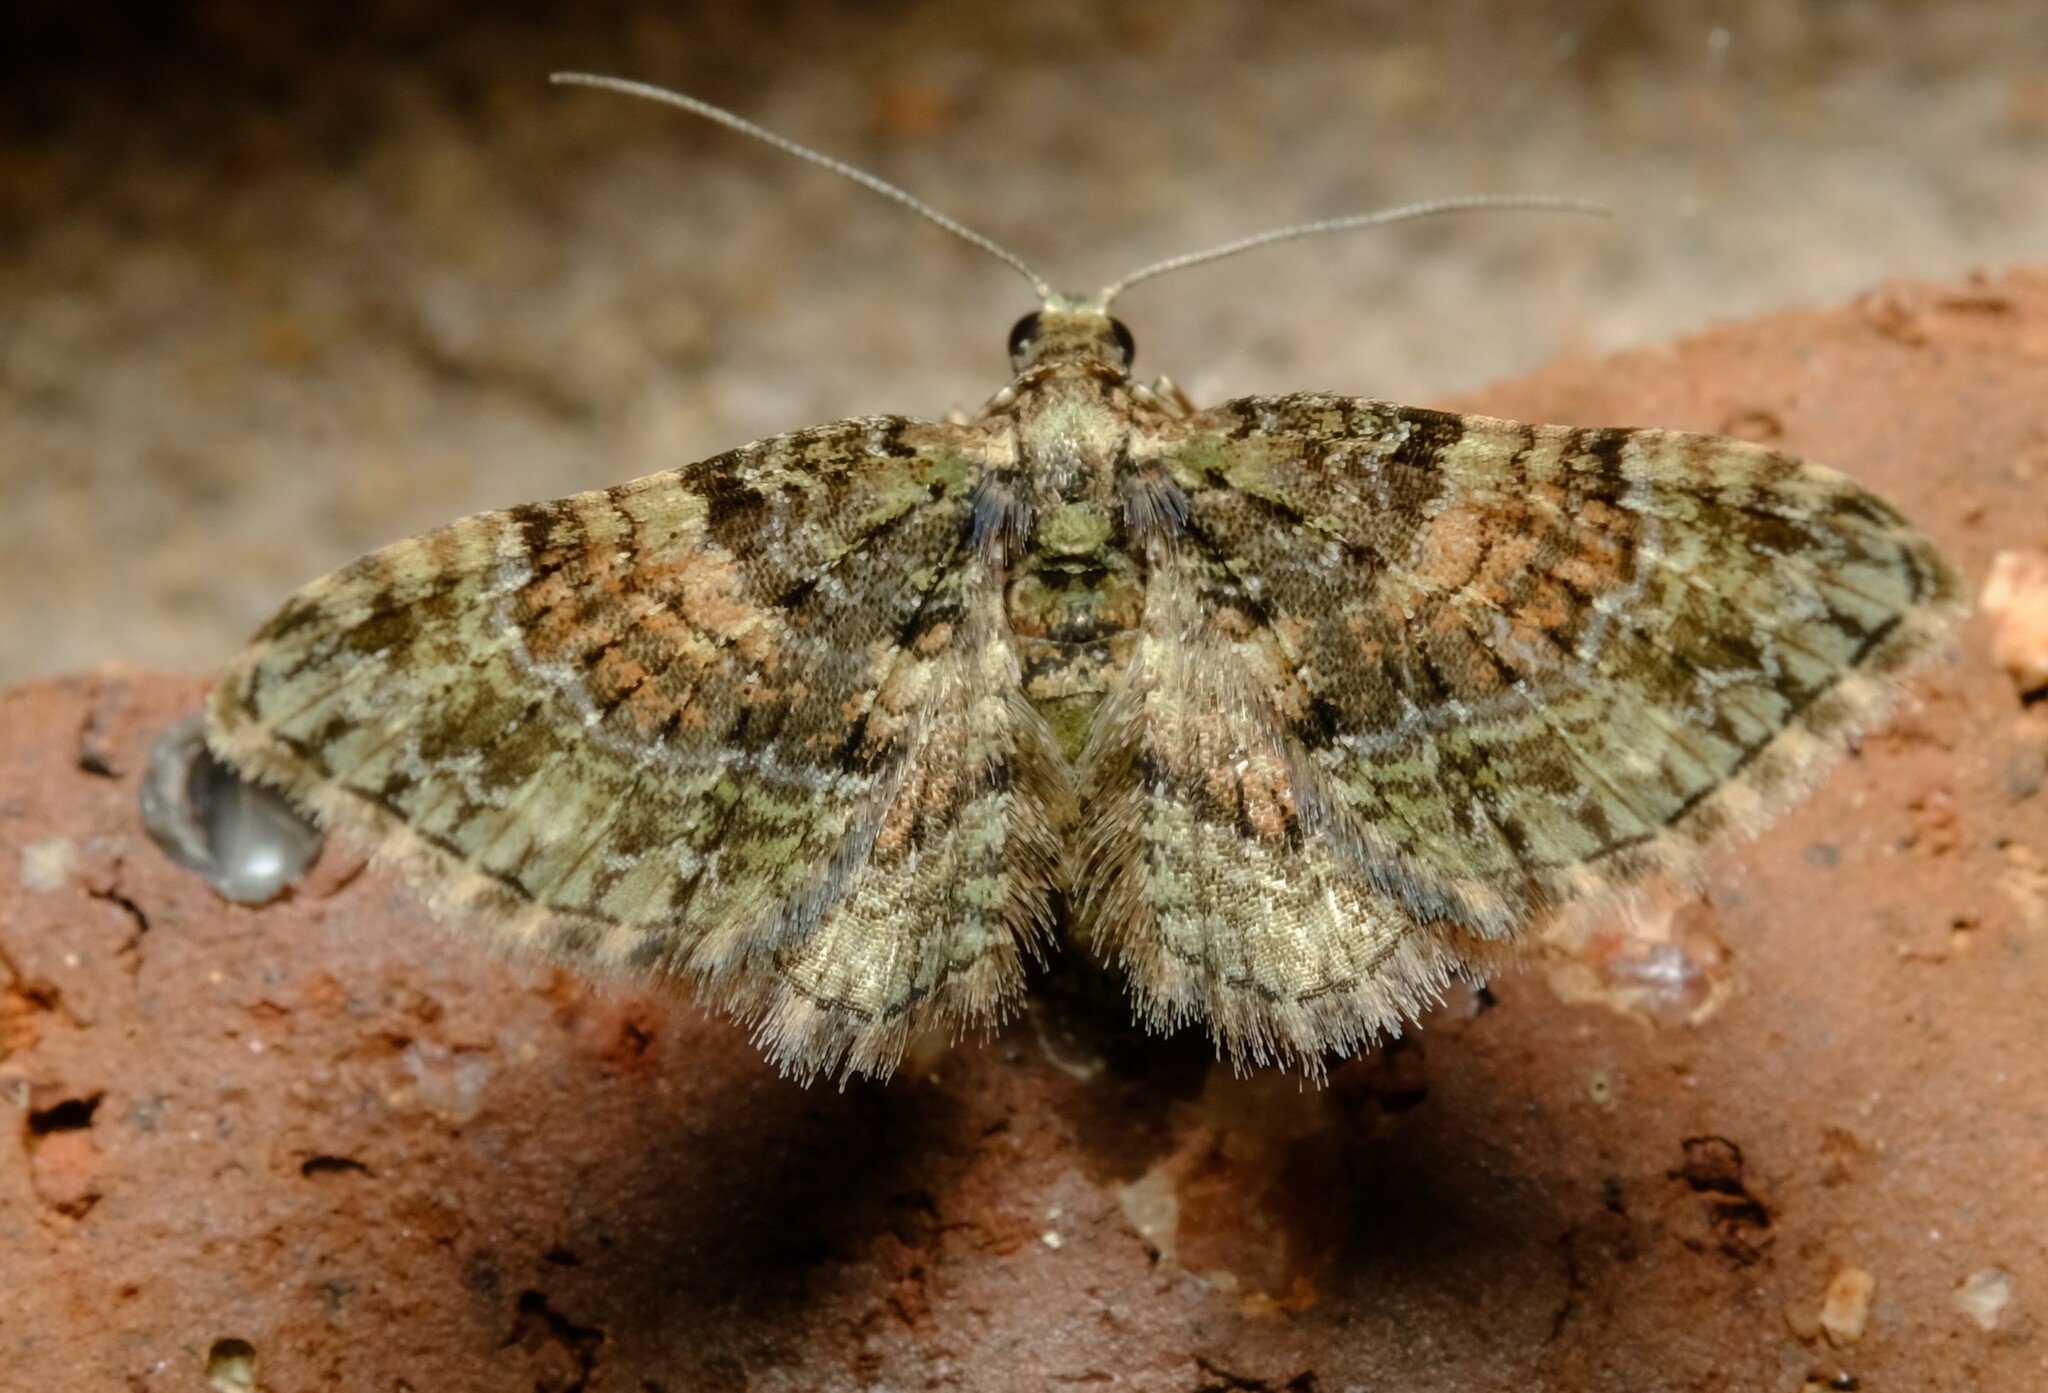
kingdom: Animalia
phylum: Arthropoda
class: Insecta
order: Lepidoptera
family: Geometridae
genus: Chloroclystis
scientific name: Chloroclystis catastreptes
